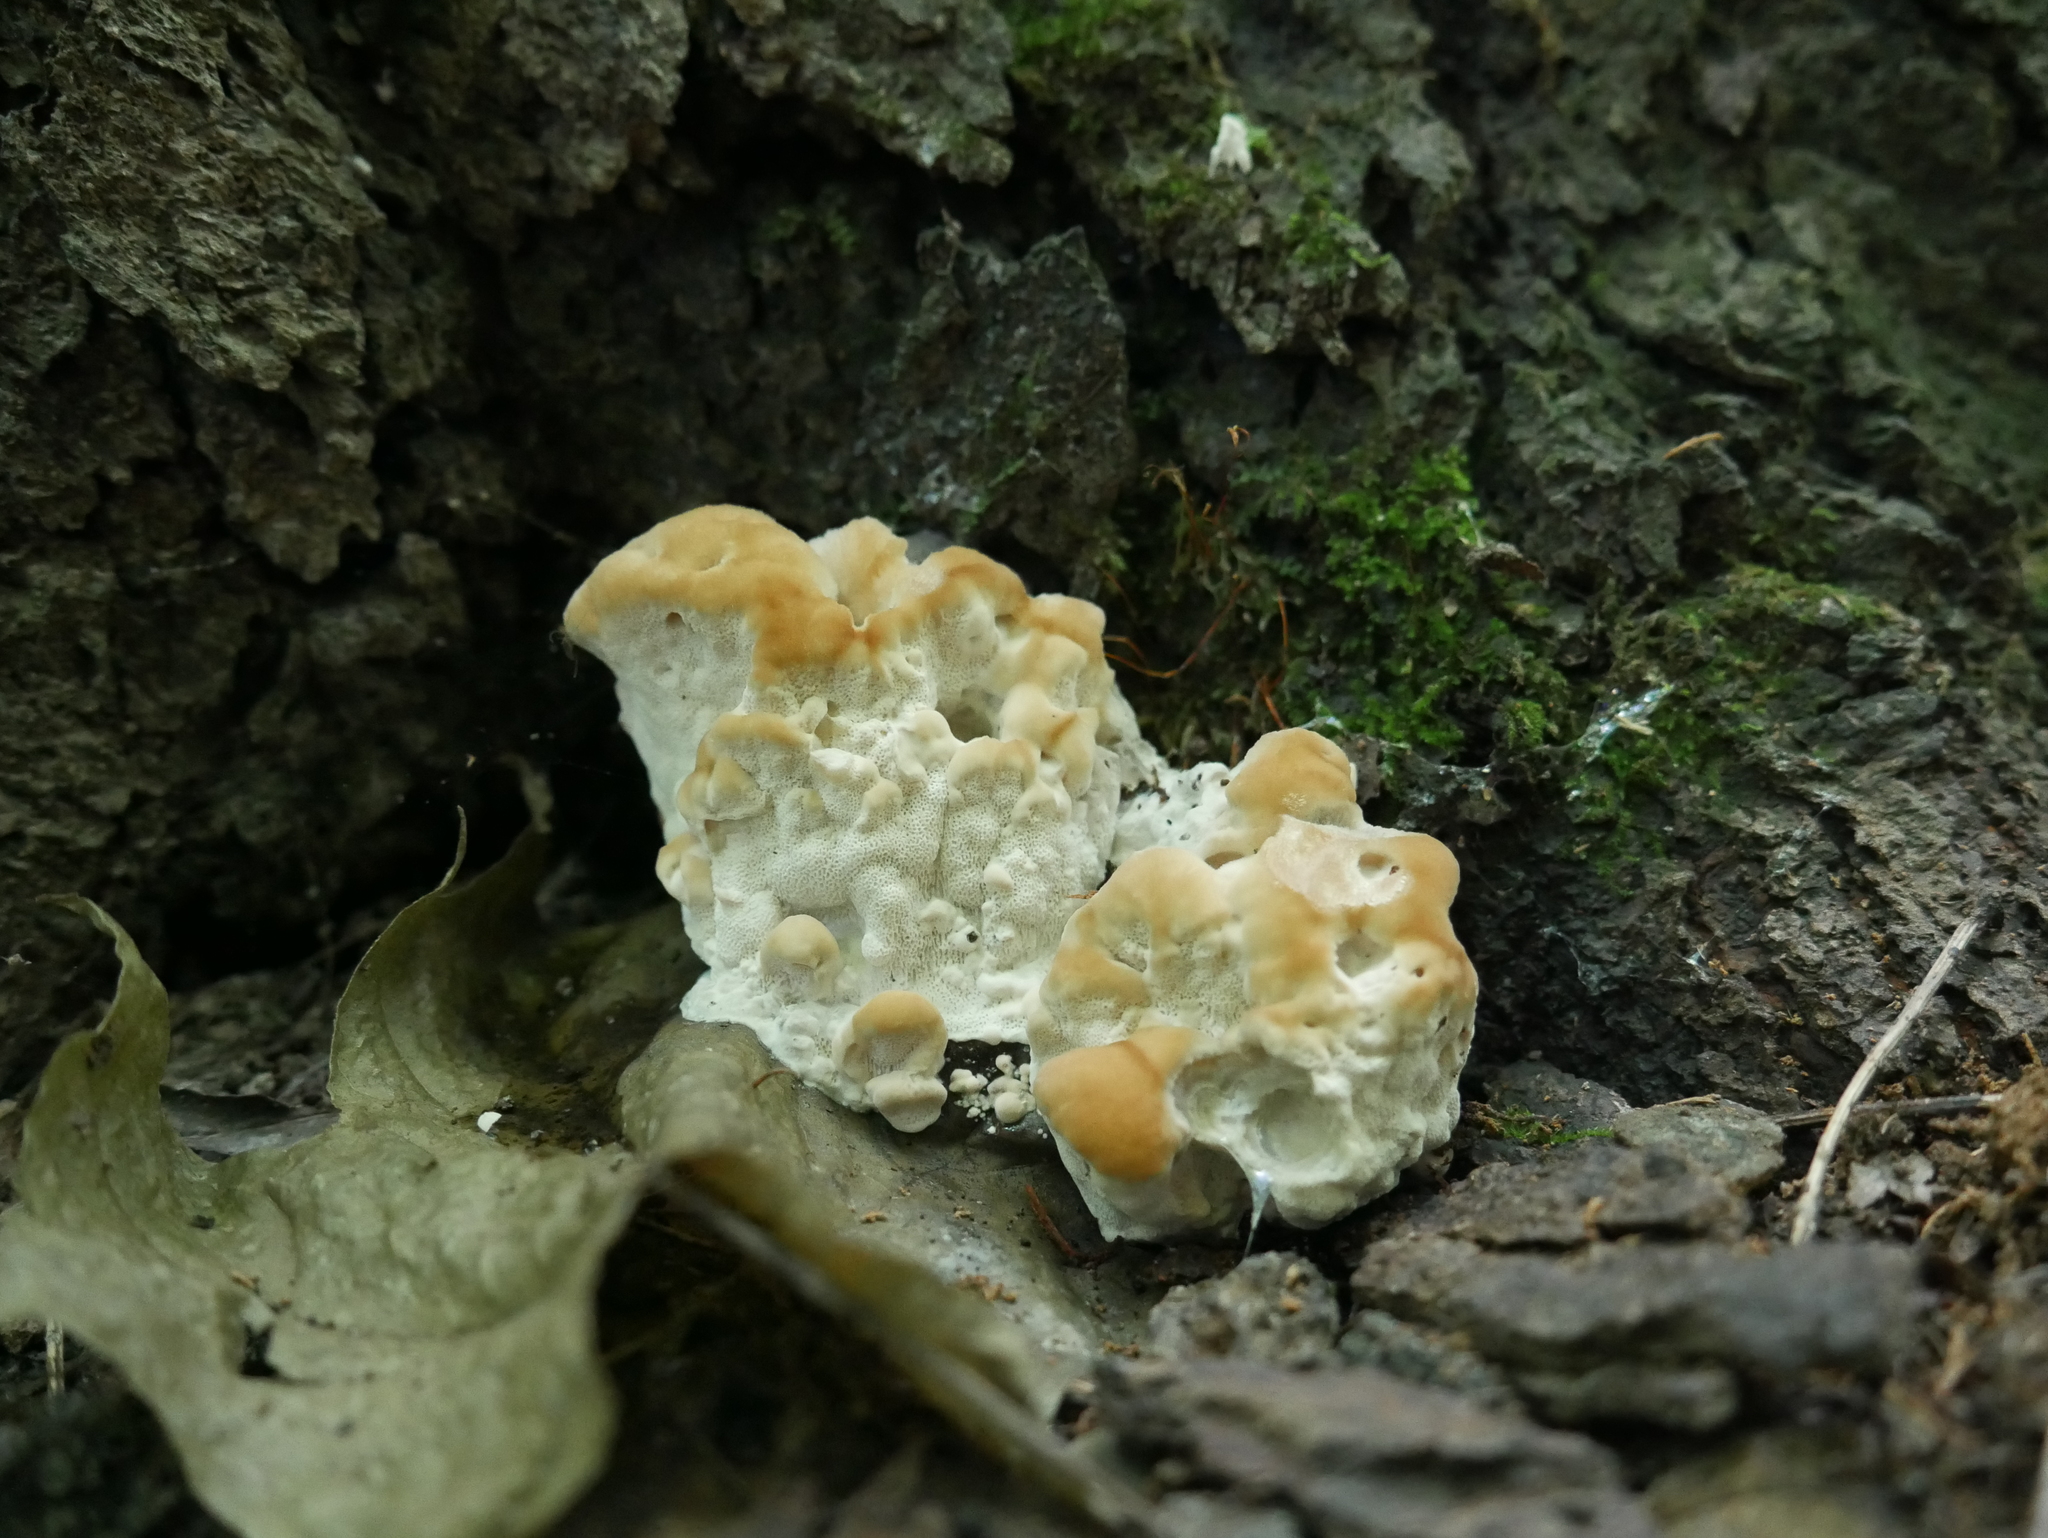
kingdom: Fungi
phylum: Basidiomycota
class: Agaricomycetes
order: Polyporales
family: Fomitopsidaceae
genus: Niveoporofomes
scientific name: Niveoporofomes spraguei
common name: Green cheese polypore
